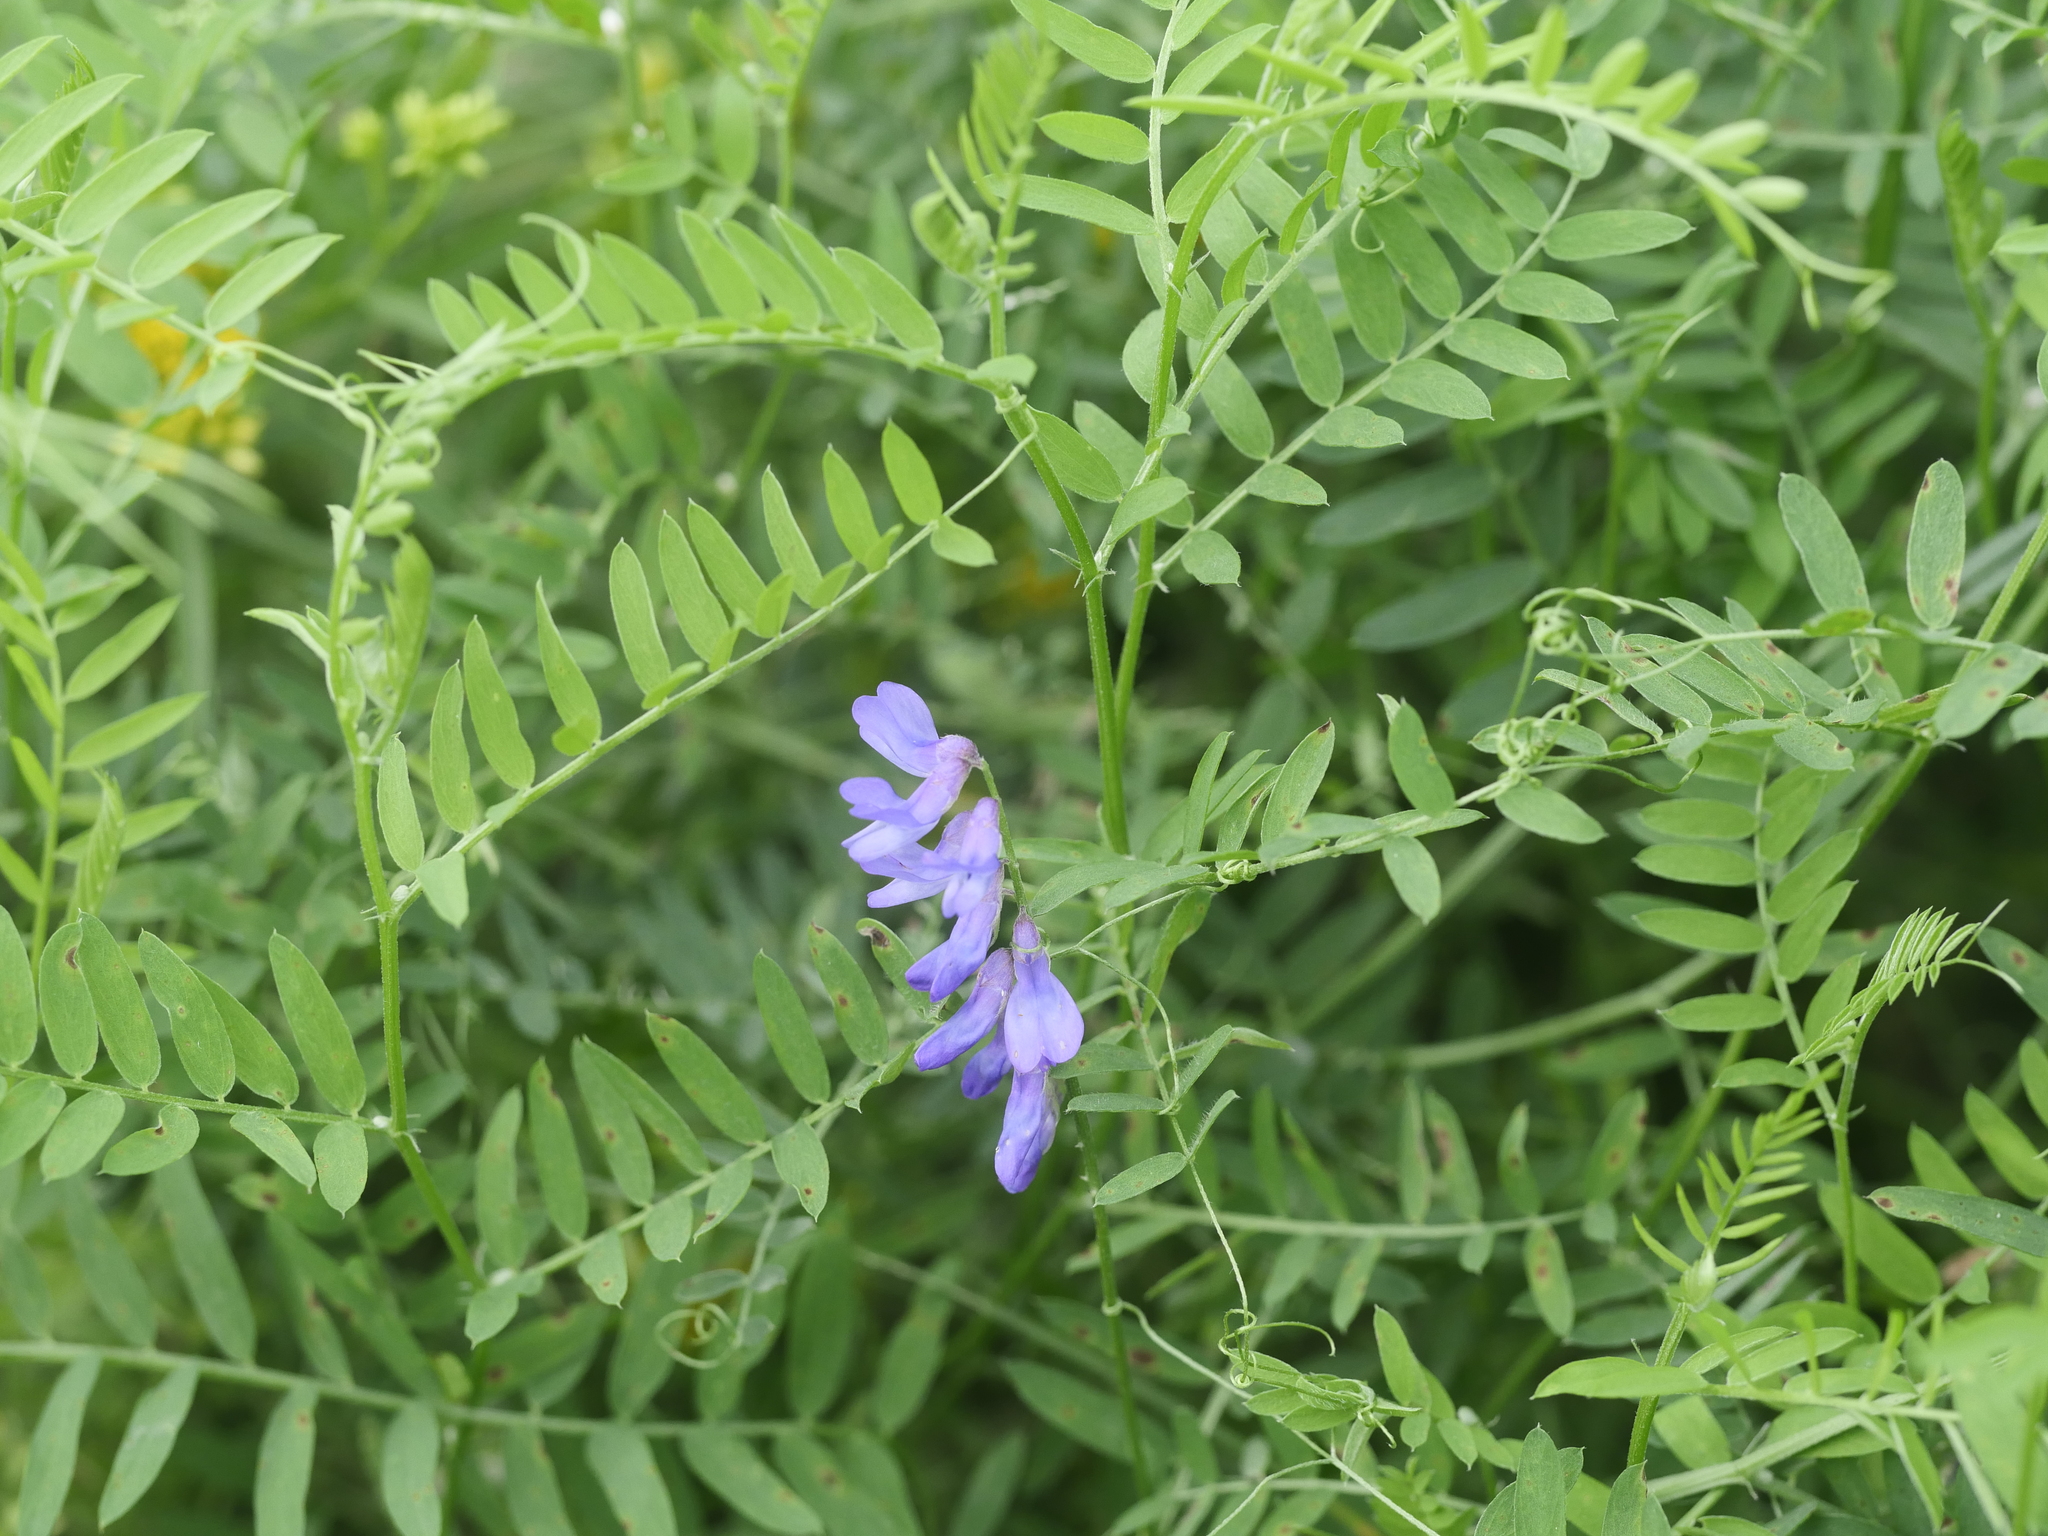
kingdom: Plantae
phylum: Tracheophyta
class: Magnoliopsida
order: Fabales
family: Fabaceae
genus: Vicia
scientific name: Vicia cracca
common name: Bird vetch
